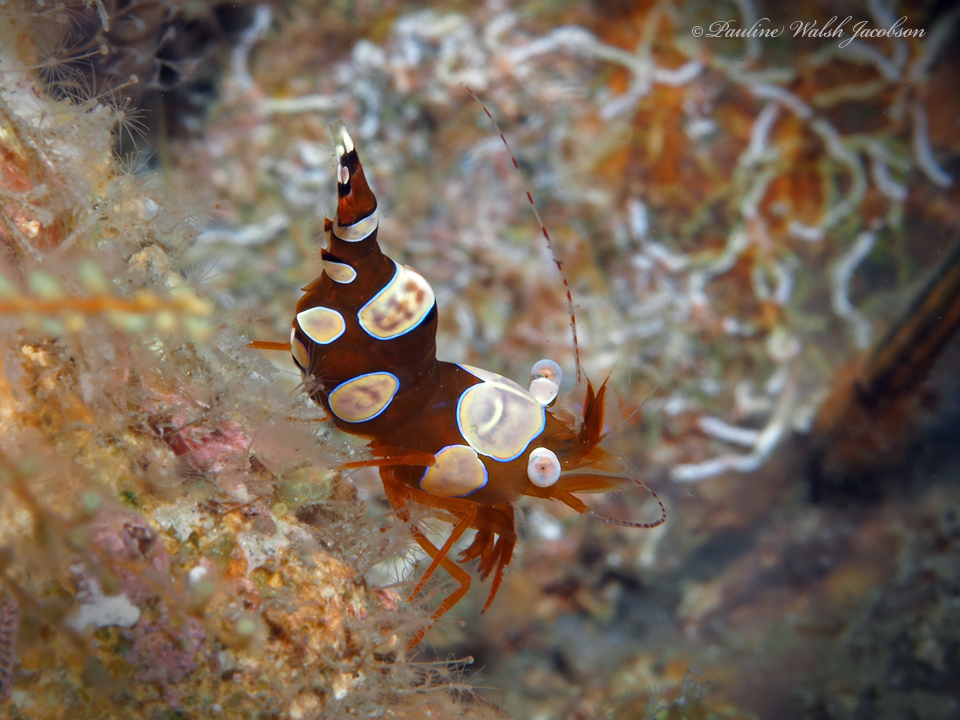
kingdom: Animalia
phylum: Arthropoda
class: Malacostraca
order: Decapoda
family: Thoridae
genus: Thor
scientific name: Thor dicaprio
